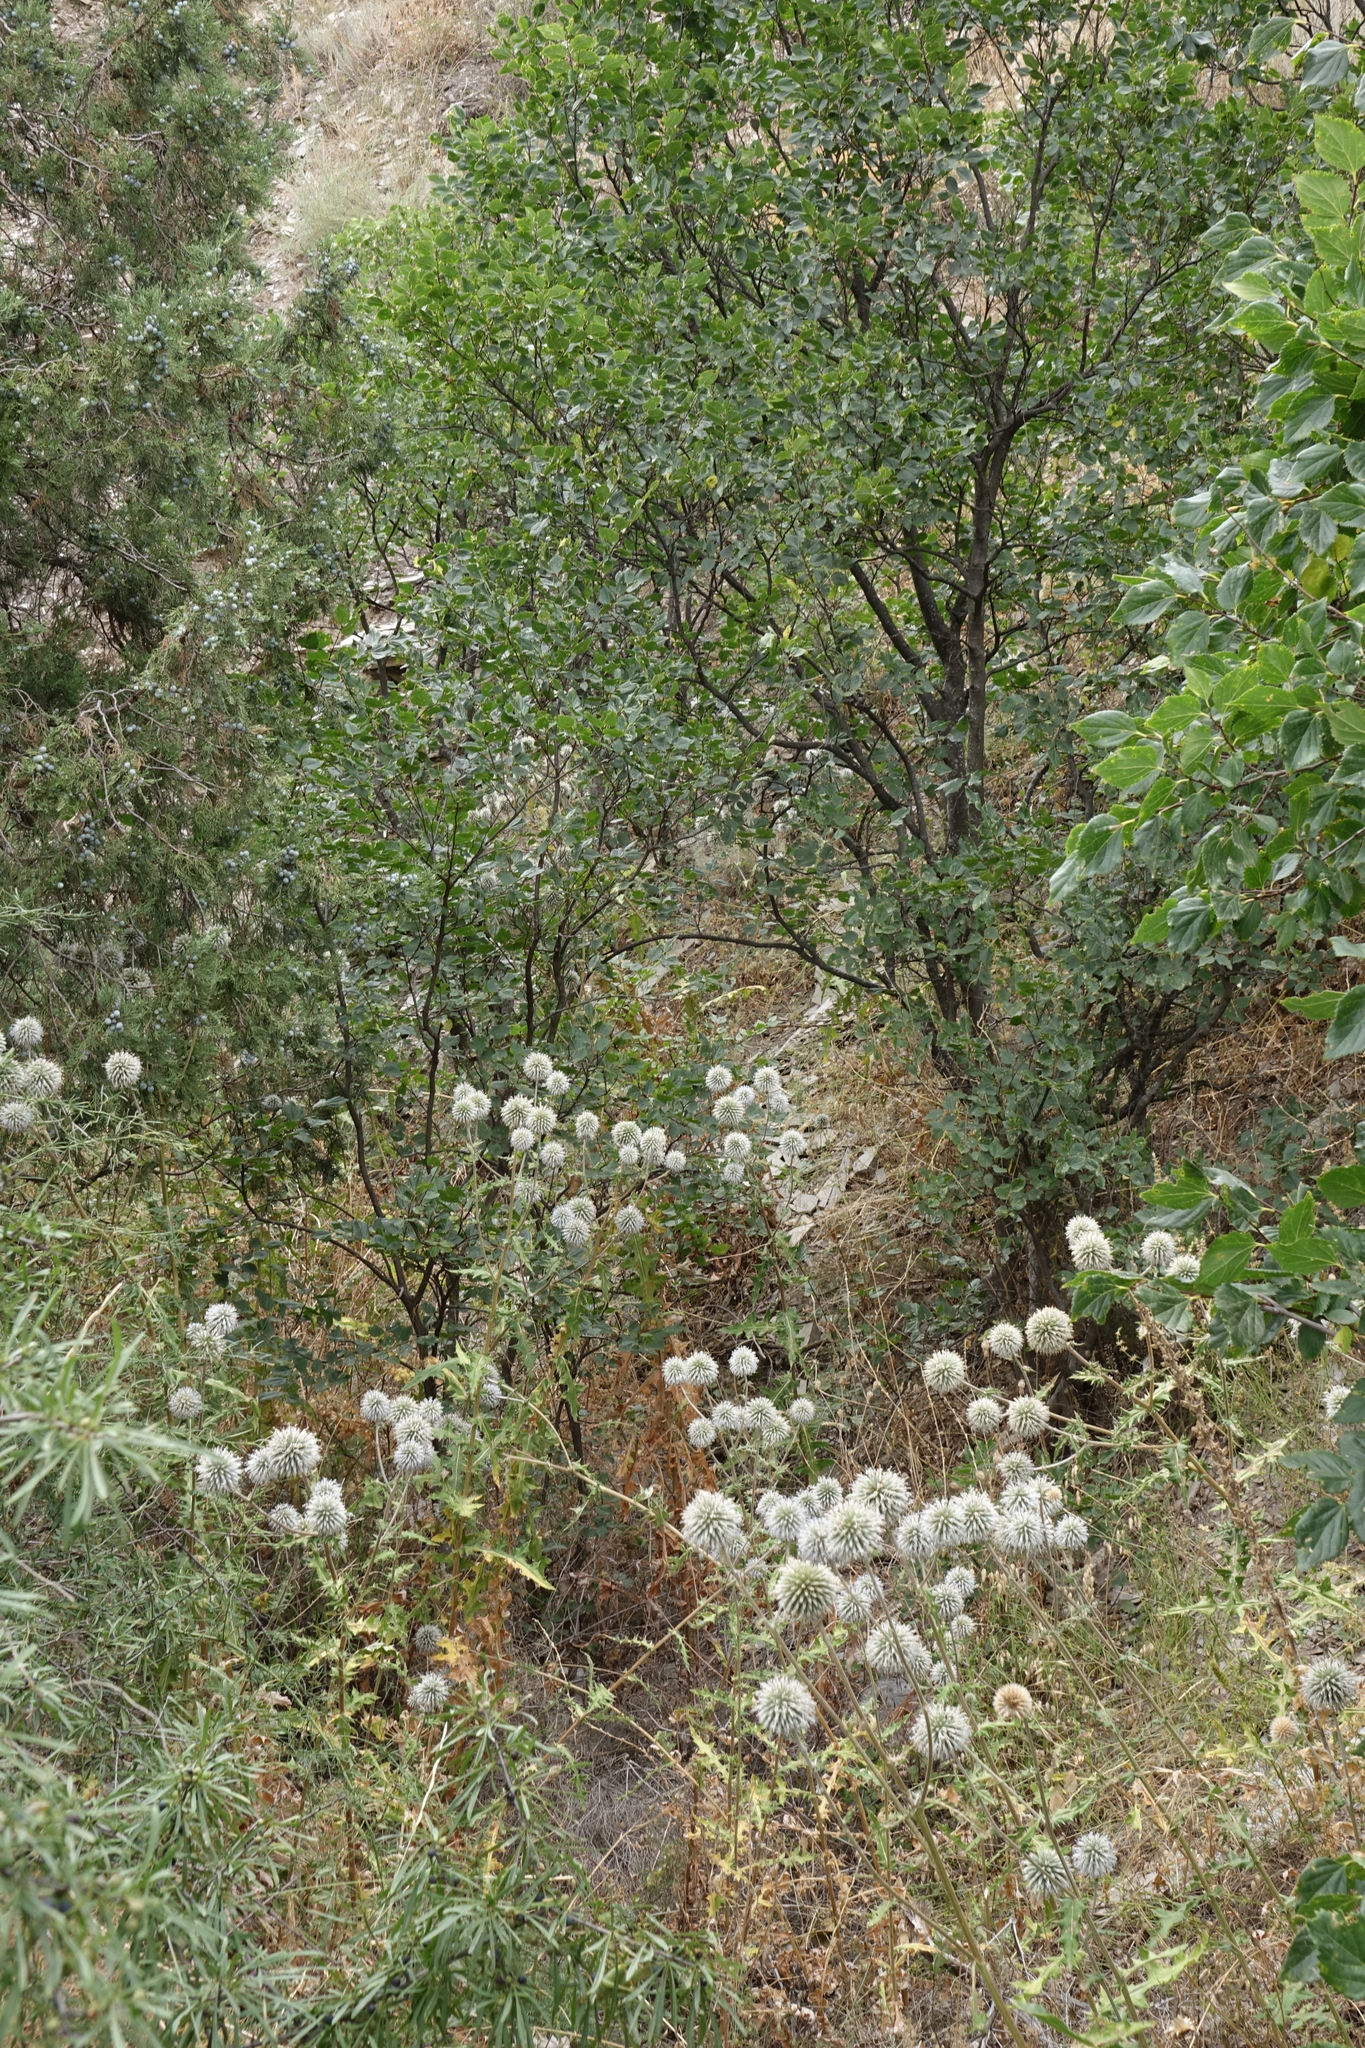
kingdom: Plantae
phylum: Tracheophyta
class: Magnoliopsida
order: Asterales
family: Asteraceae
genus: Echinops
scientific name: Echinops sphaerocephalus
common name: Glandular globe-thistle
